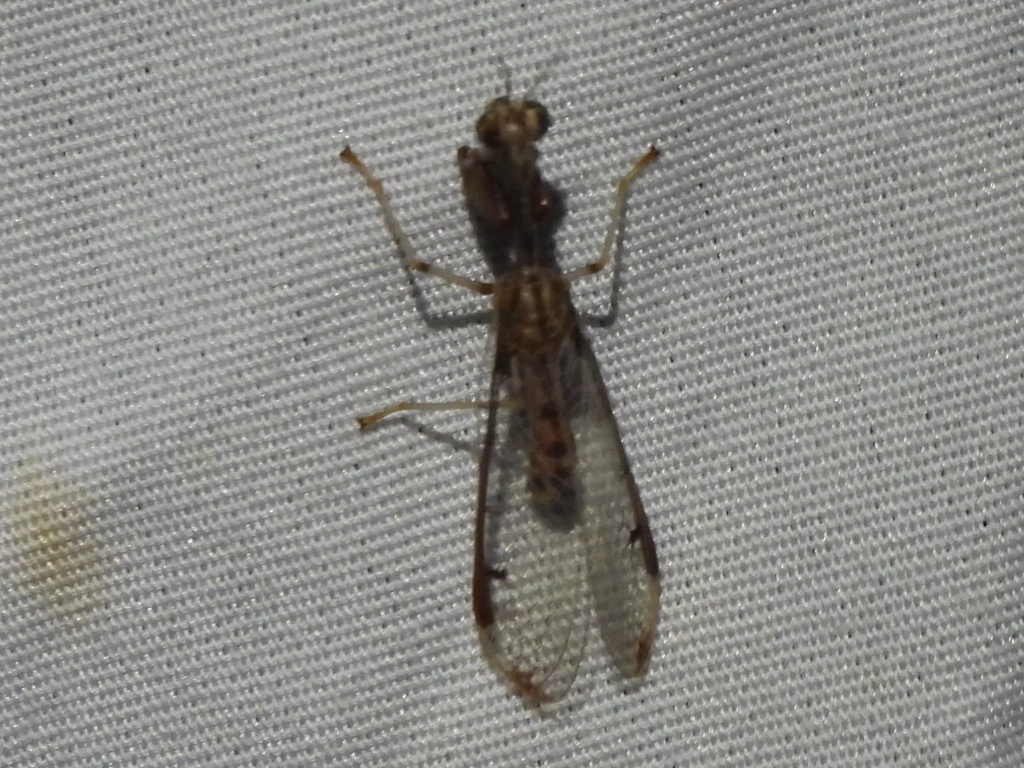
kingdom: Animalia
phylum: Arthropoda
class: Insecta
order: Neuroptera
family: Mantispidae
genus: Dicromantispa
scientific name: Dicromantispa interrupta
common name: Four-spotted mantidfly
